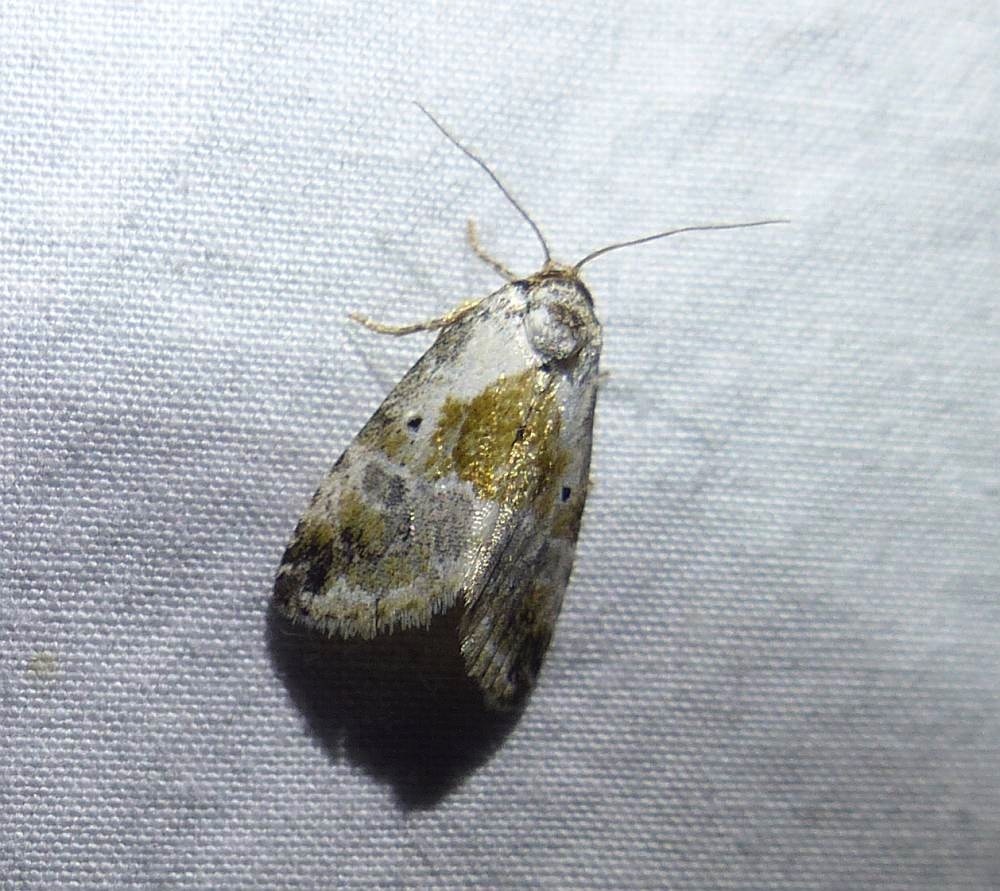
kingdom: Animalia
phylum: Arthropoda
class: Insecta
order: Lepidoptera
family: Noctuidae
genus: Maliattha
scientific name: Maliattha synochitis
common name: Black-dotted glyph
